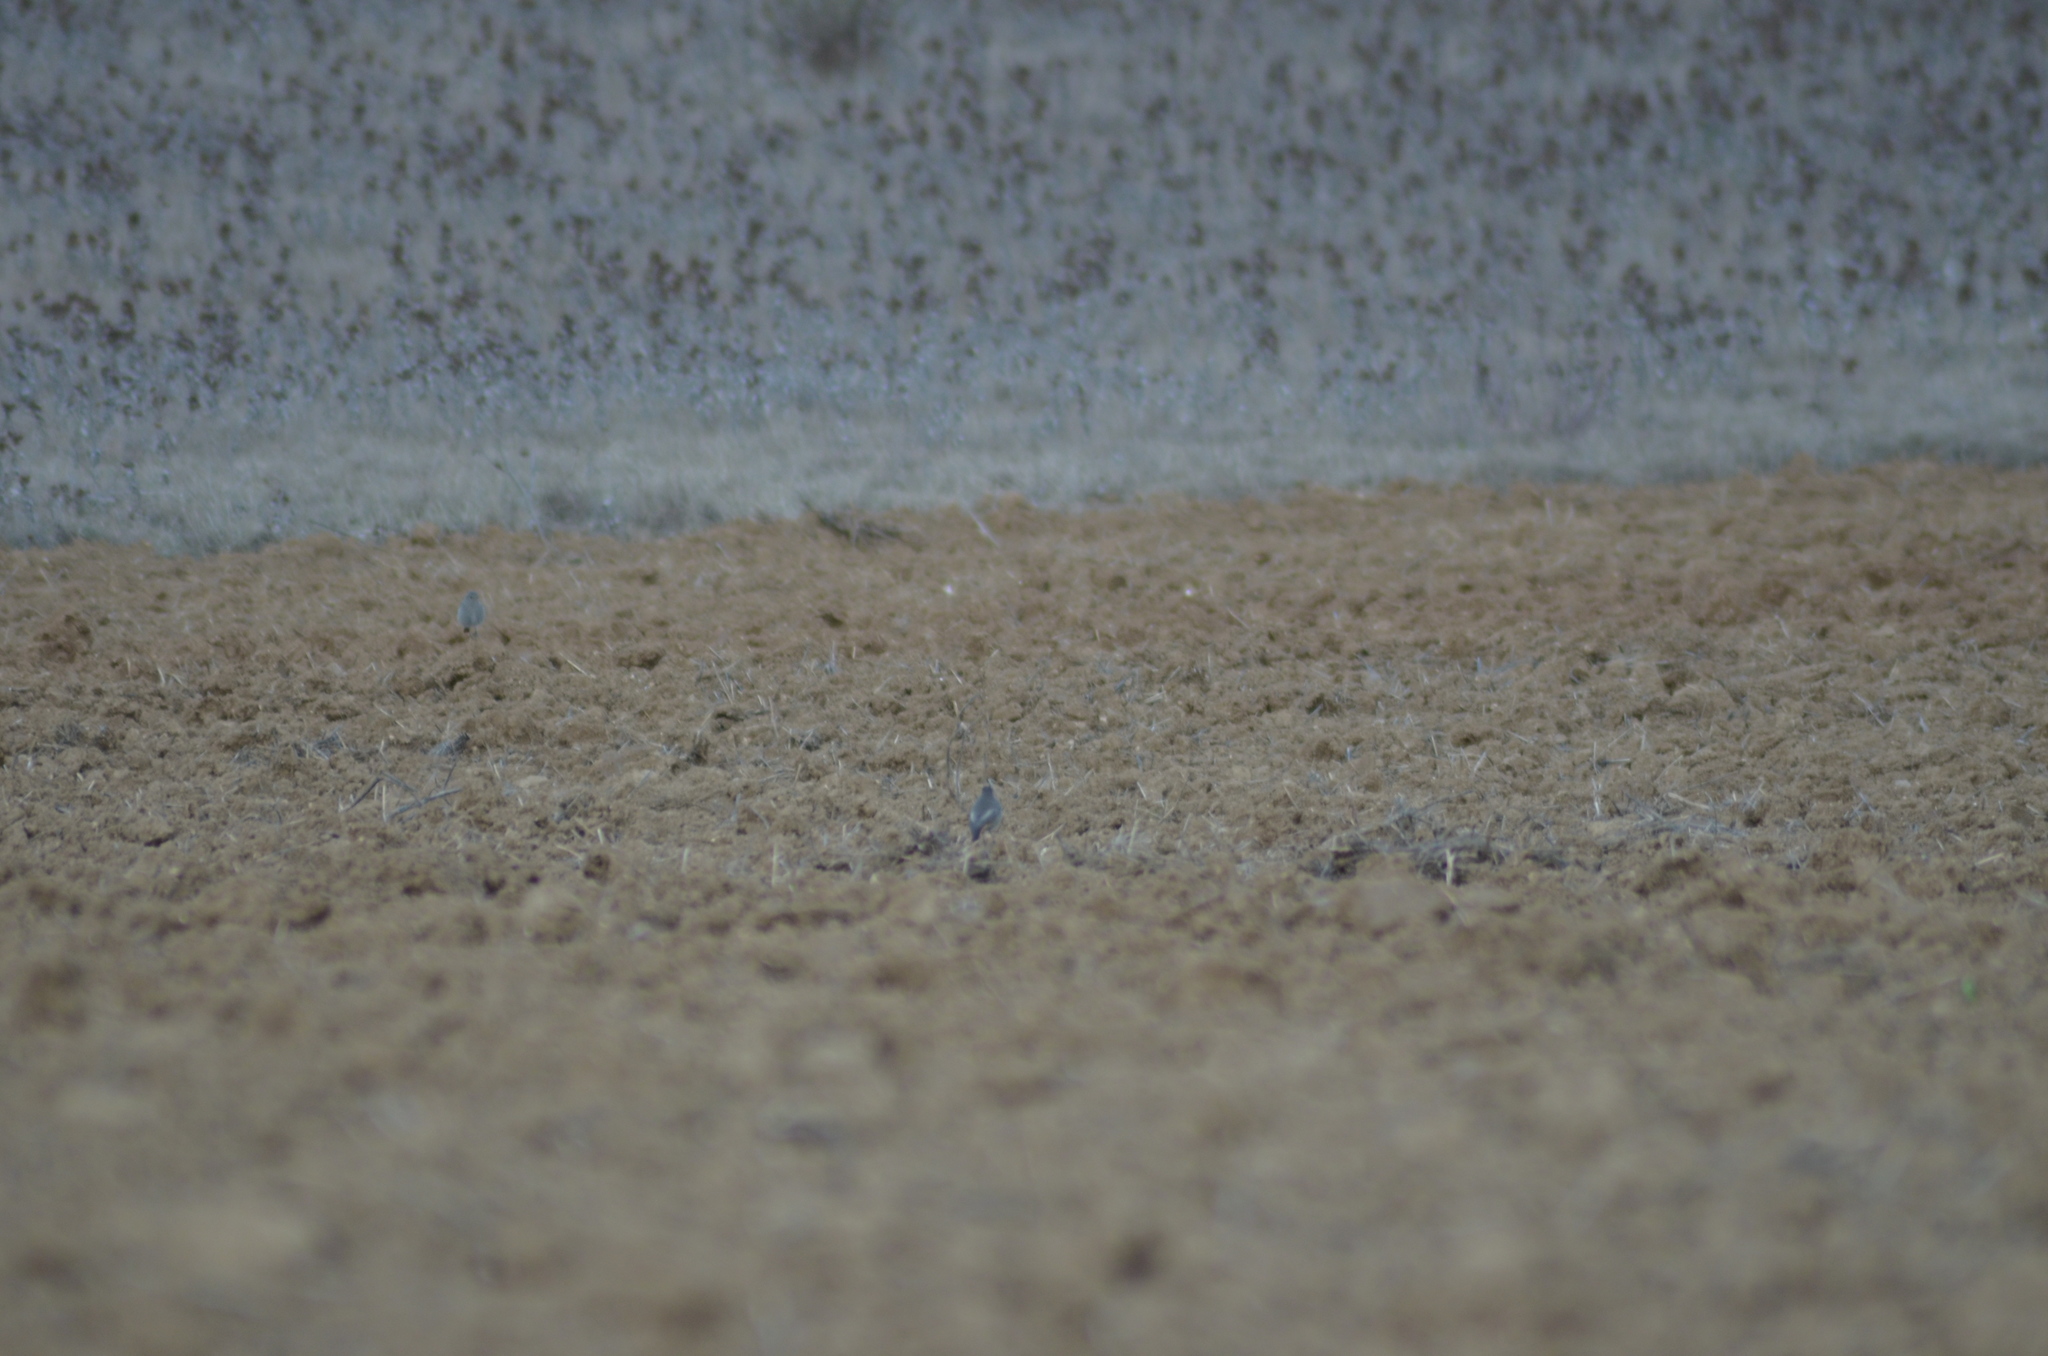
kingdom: Animalia
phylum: Chordata
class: Aves
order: Passeriformes
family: Muscicapidae
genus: Phoenicurus
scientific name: Phoenicurus ochruros
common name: Black redstart
